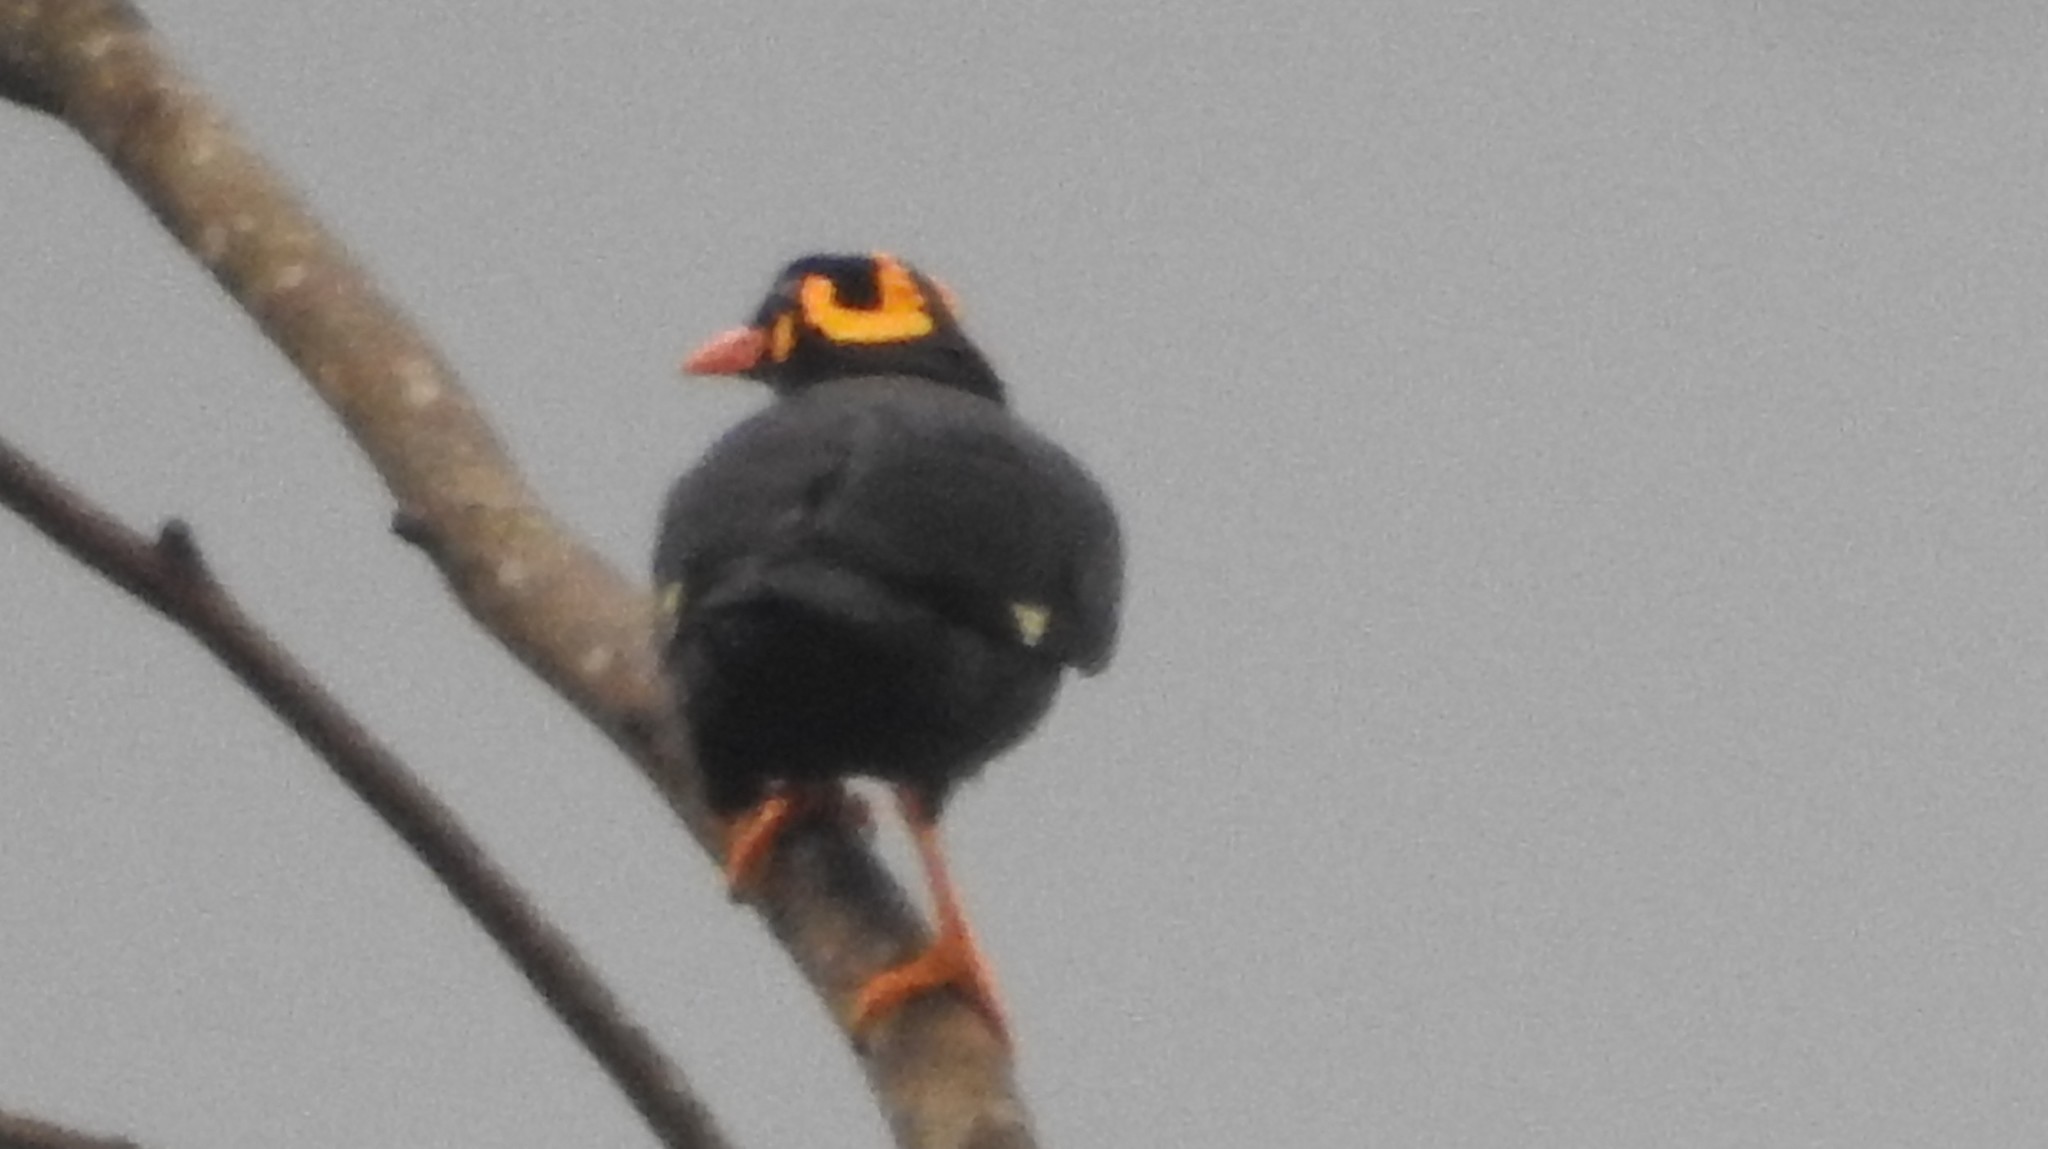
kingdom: Animalia
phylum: Chordata
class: Aves
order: Passeriformes
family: Sturnidae
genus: Gracula
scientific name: Gracula indica
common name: Southern hill myna
